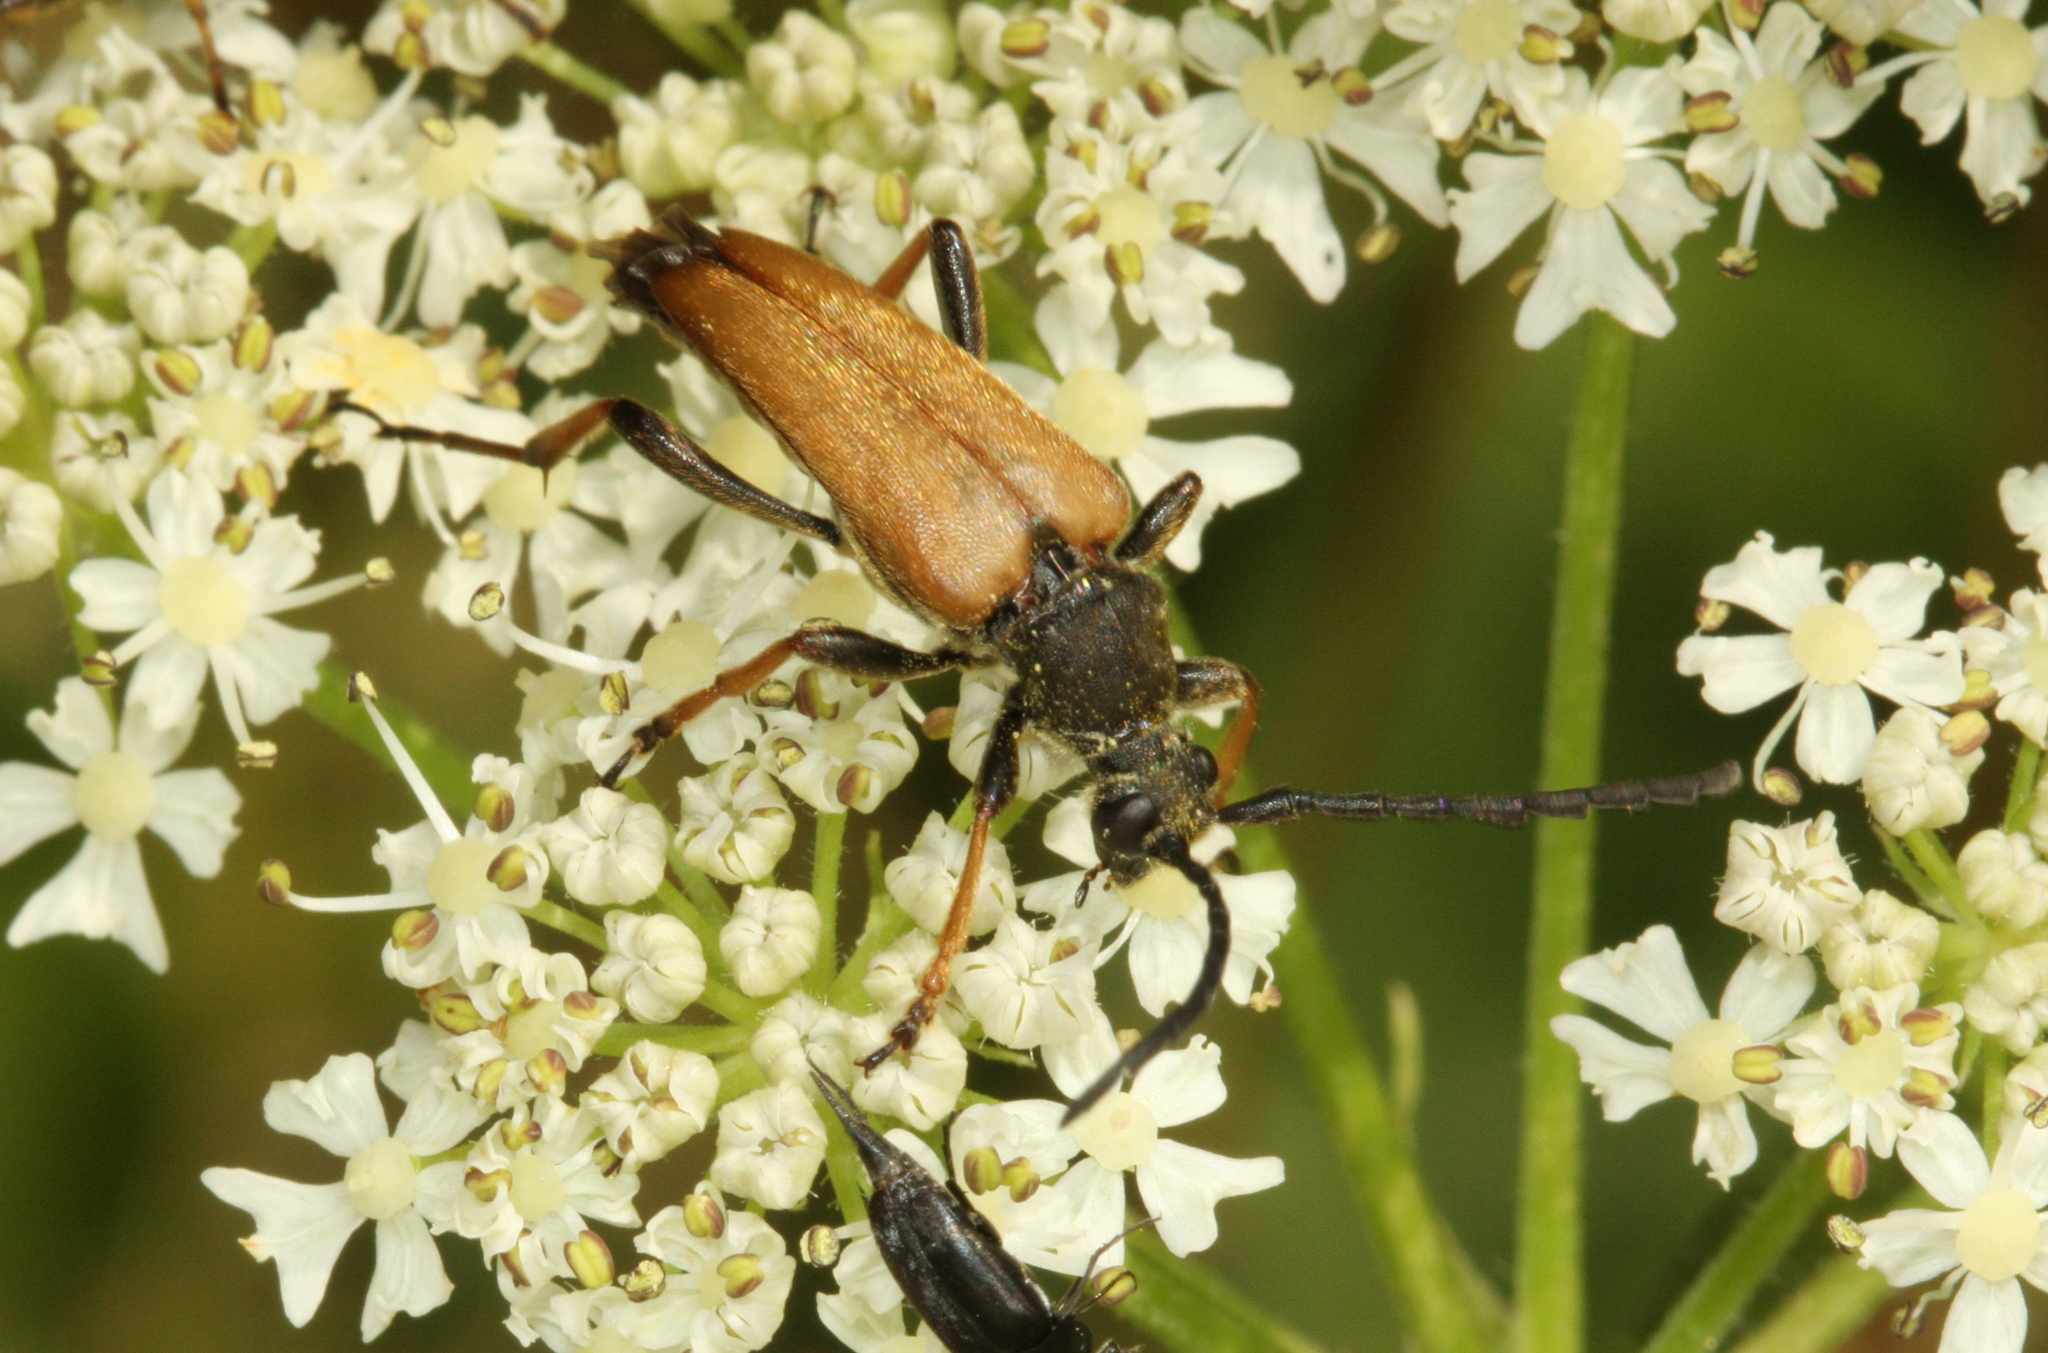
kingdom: Animalia
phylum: Arthropoda
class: Insecta
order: Coleoptera
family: Cerambycidae
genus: Stictoleptura
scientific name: Stictoleptura rubra
